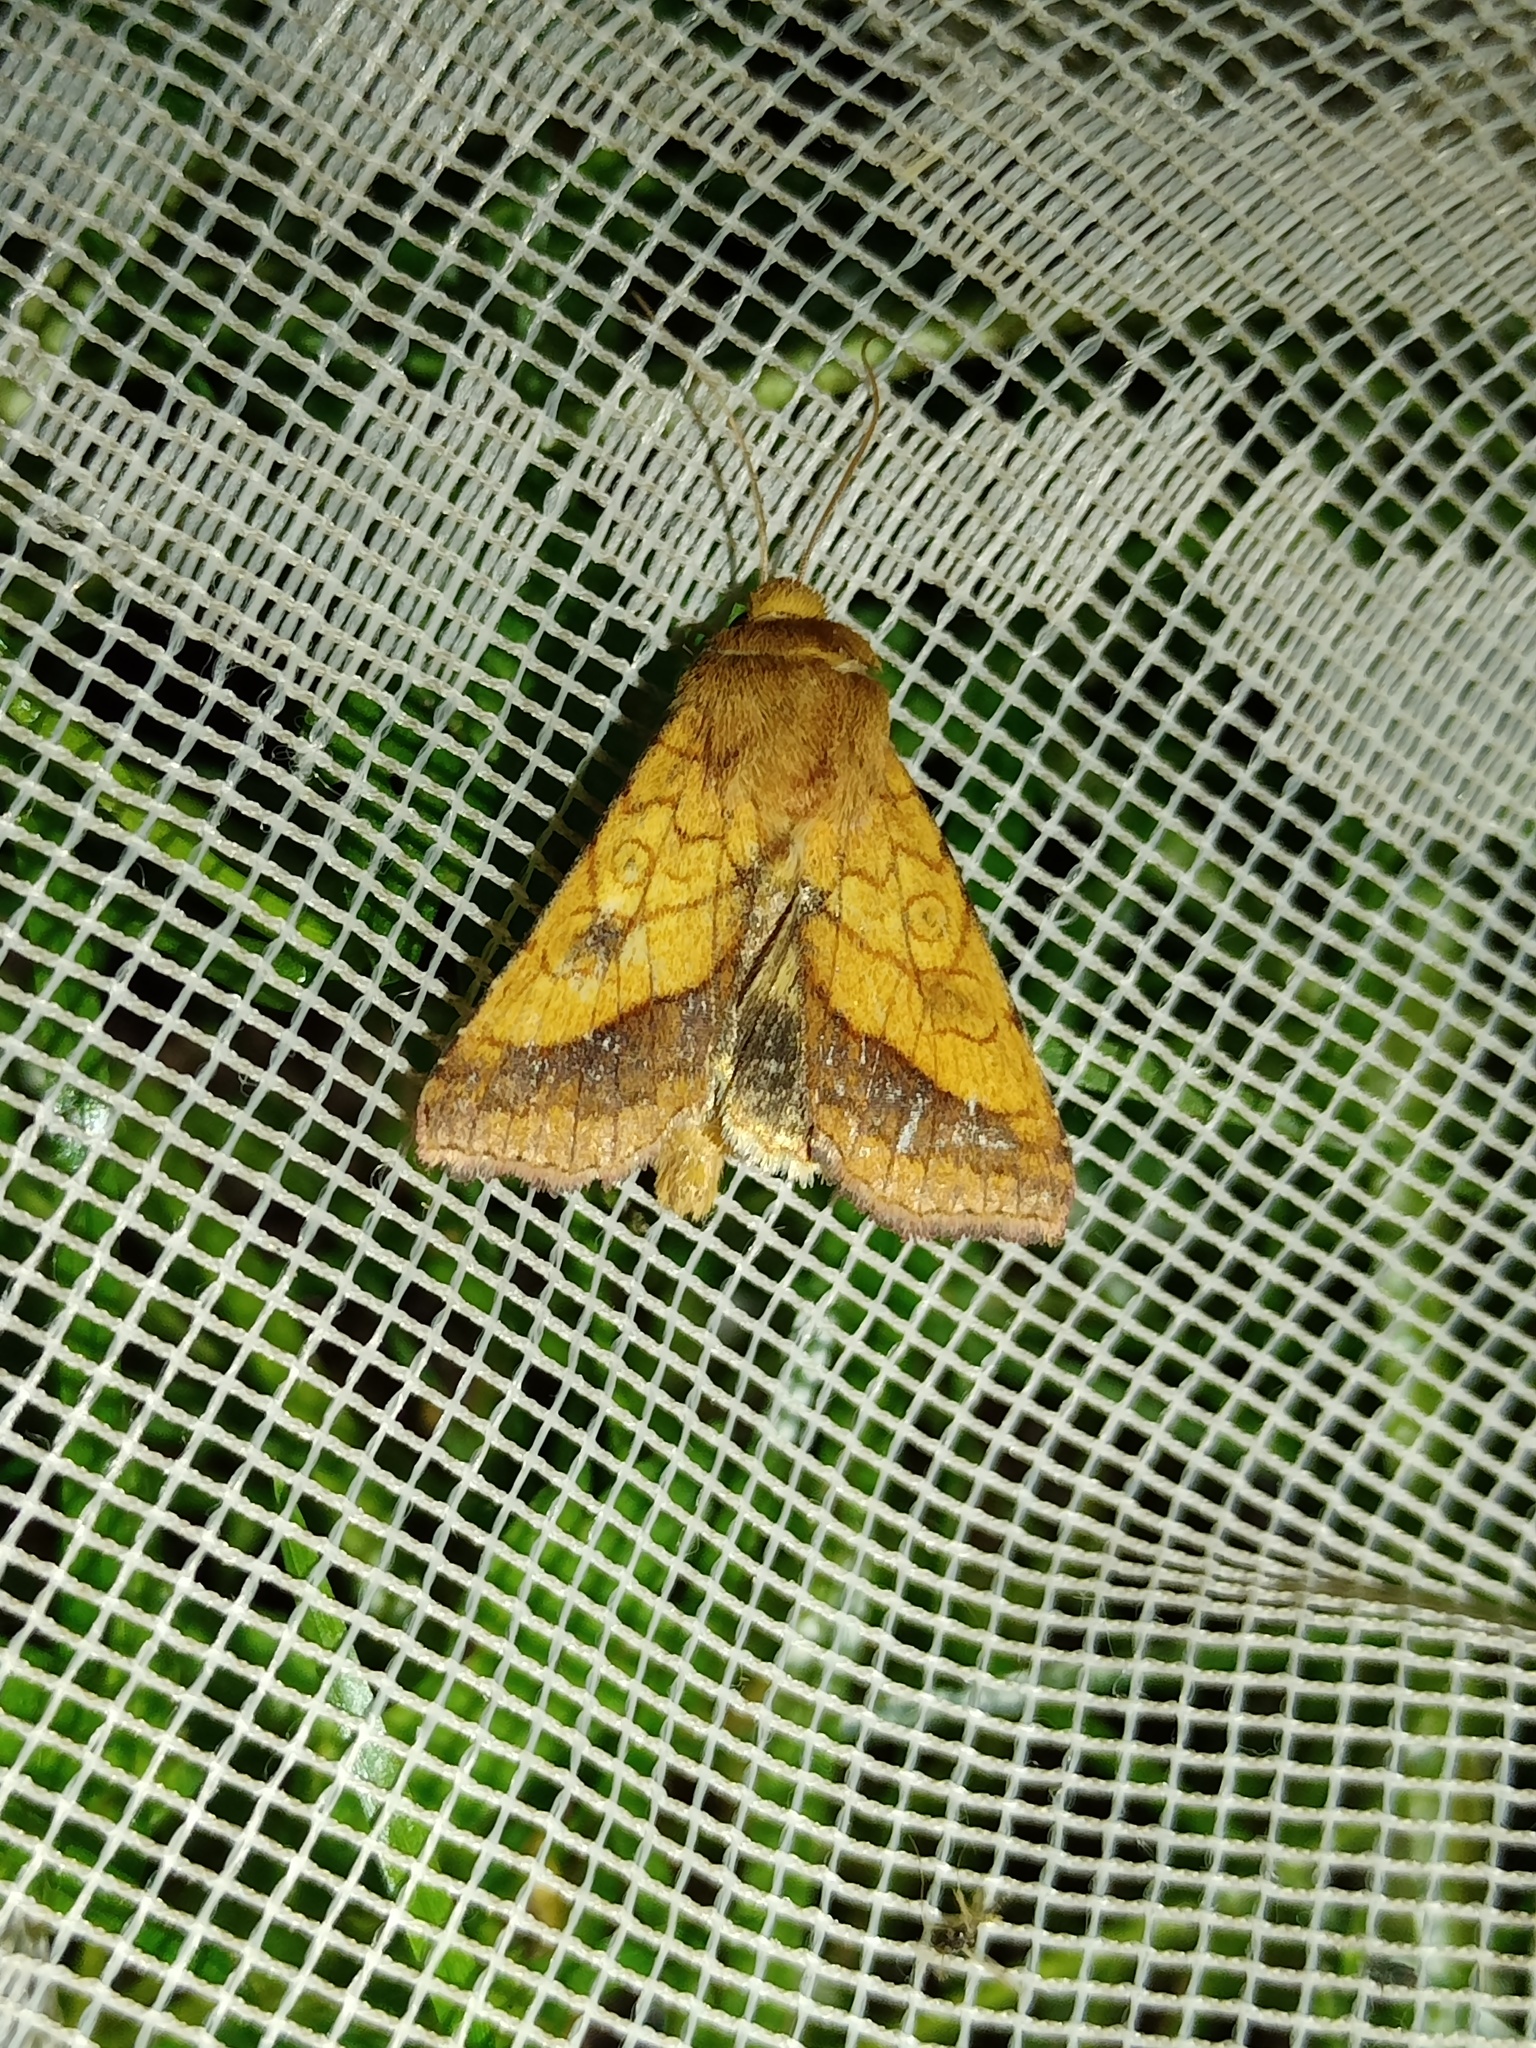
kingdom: Animalia
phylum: Arthropoda
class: Insecta
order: Lepidoptera
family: Noctuidae
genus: Pyrrhia
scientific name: Pyrrhia umbra
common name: Bordered sallow
